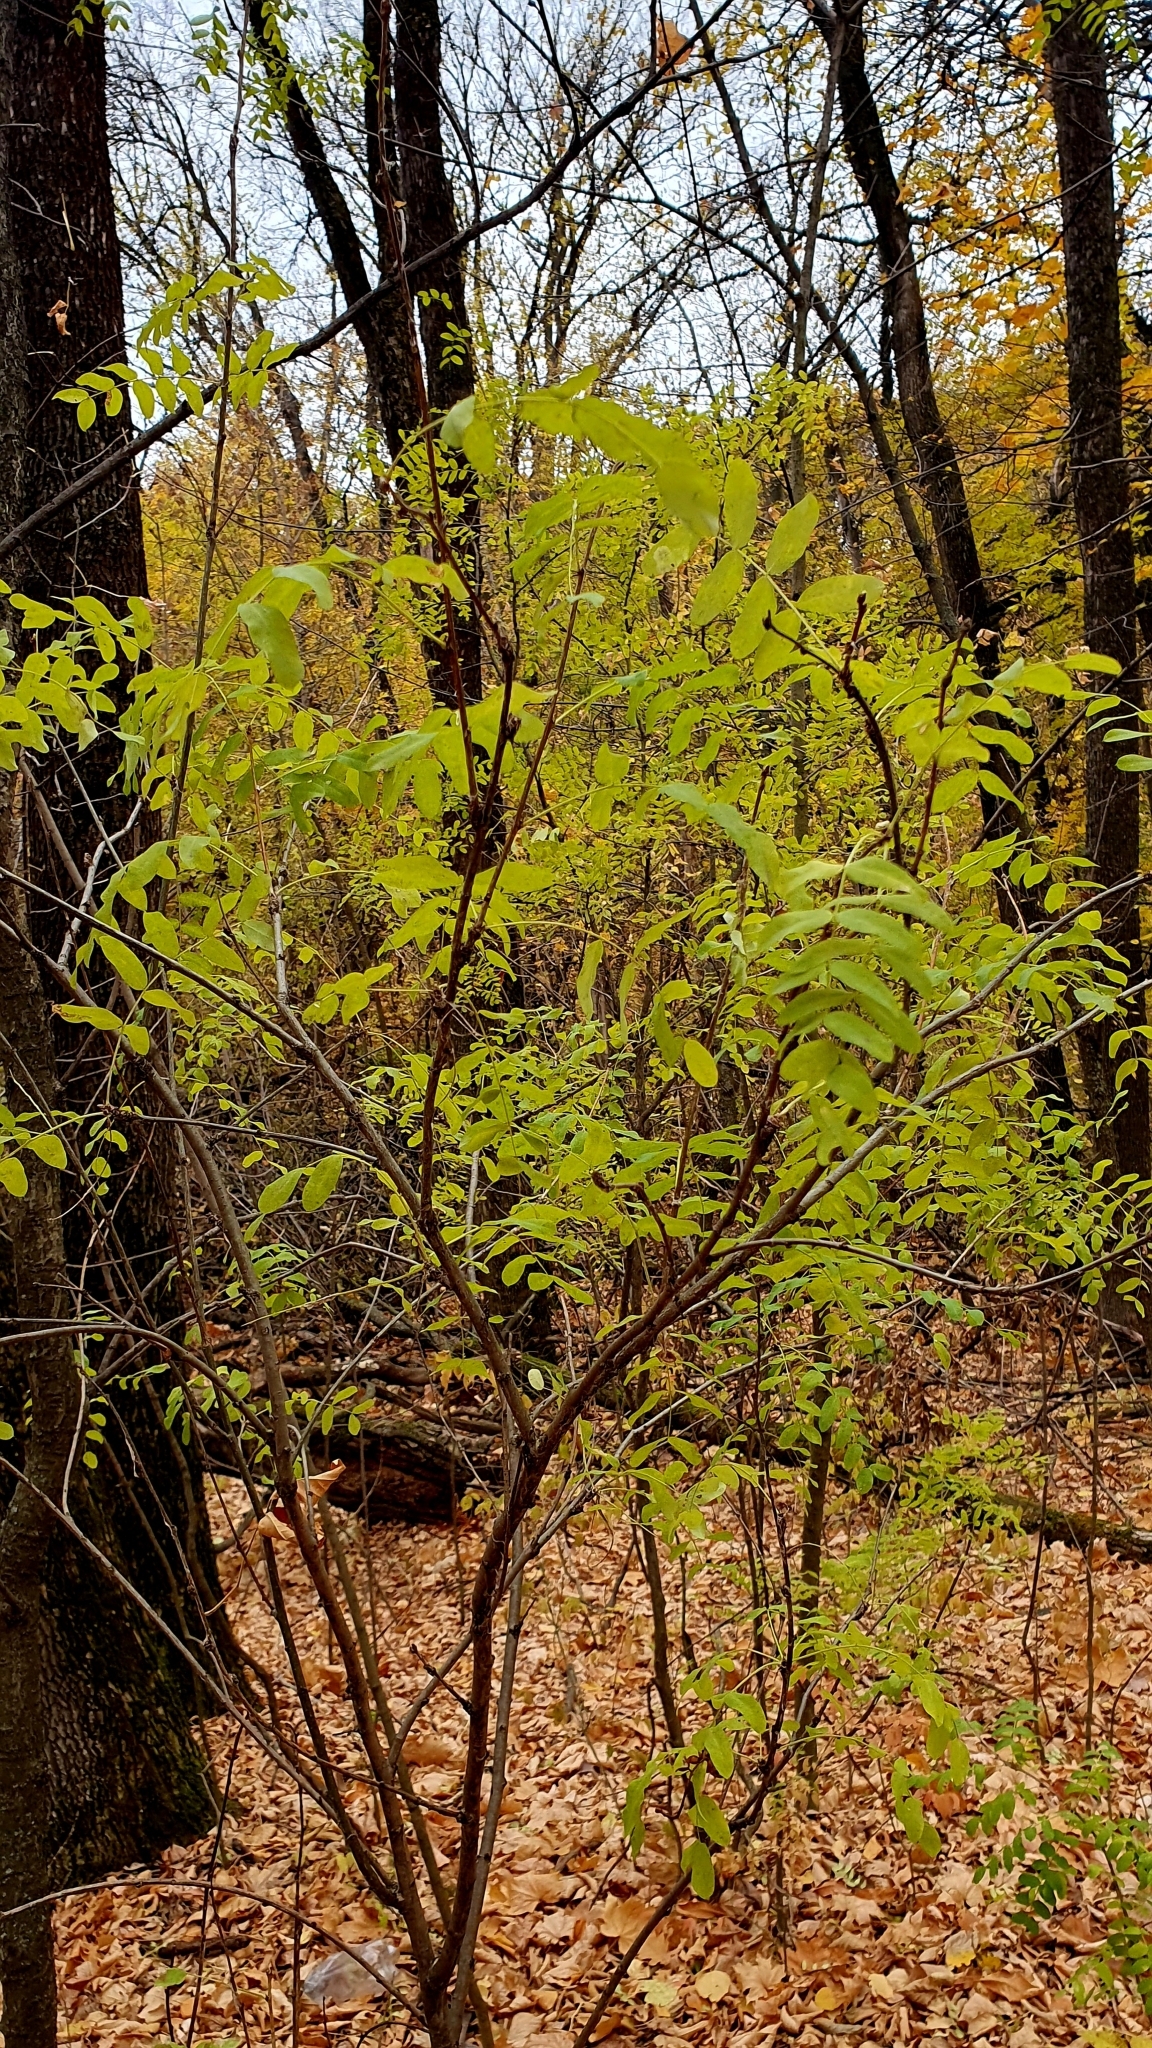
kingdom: Plantae
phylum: Tracheophyta
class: Magnoliopsida
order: Fabales
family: Fabaceae
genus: Caragana
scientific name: Caragana arborescens
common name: Siberian peashrub
